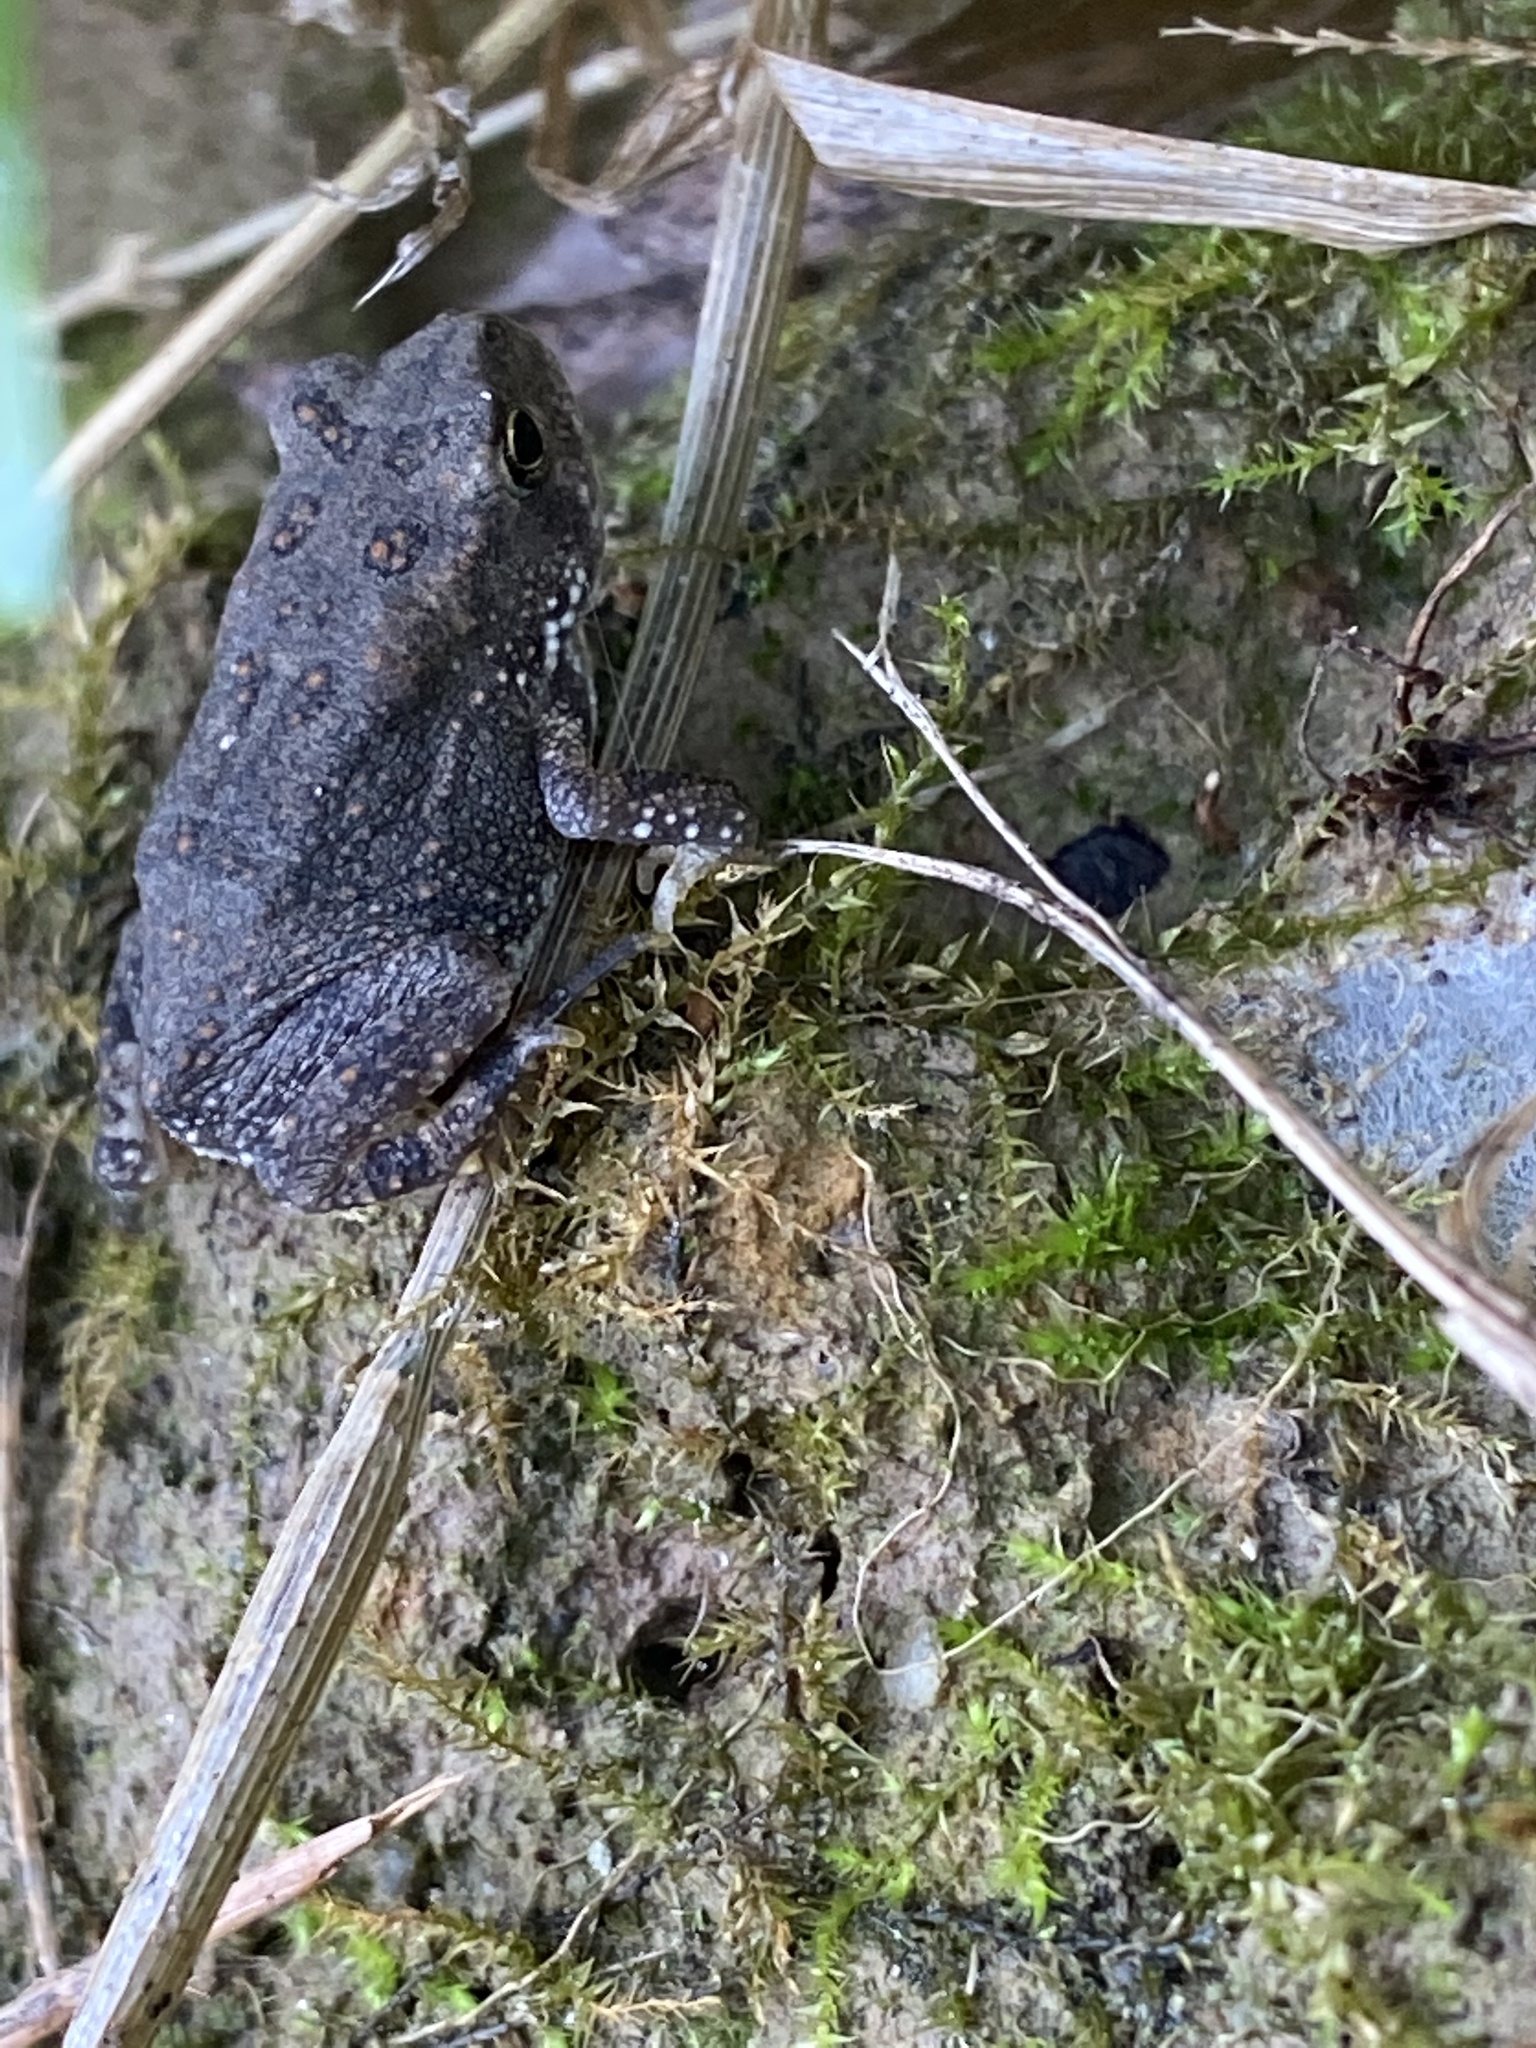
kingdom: Animalia
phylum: Chordata
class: Amphibia
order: Anura
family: Bufonidae
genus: Anaxyrus
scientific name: Anaxyrus fowleri
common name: Fowler's toad
